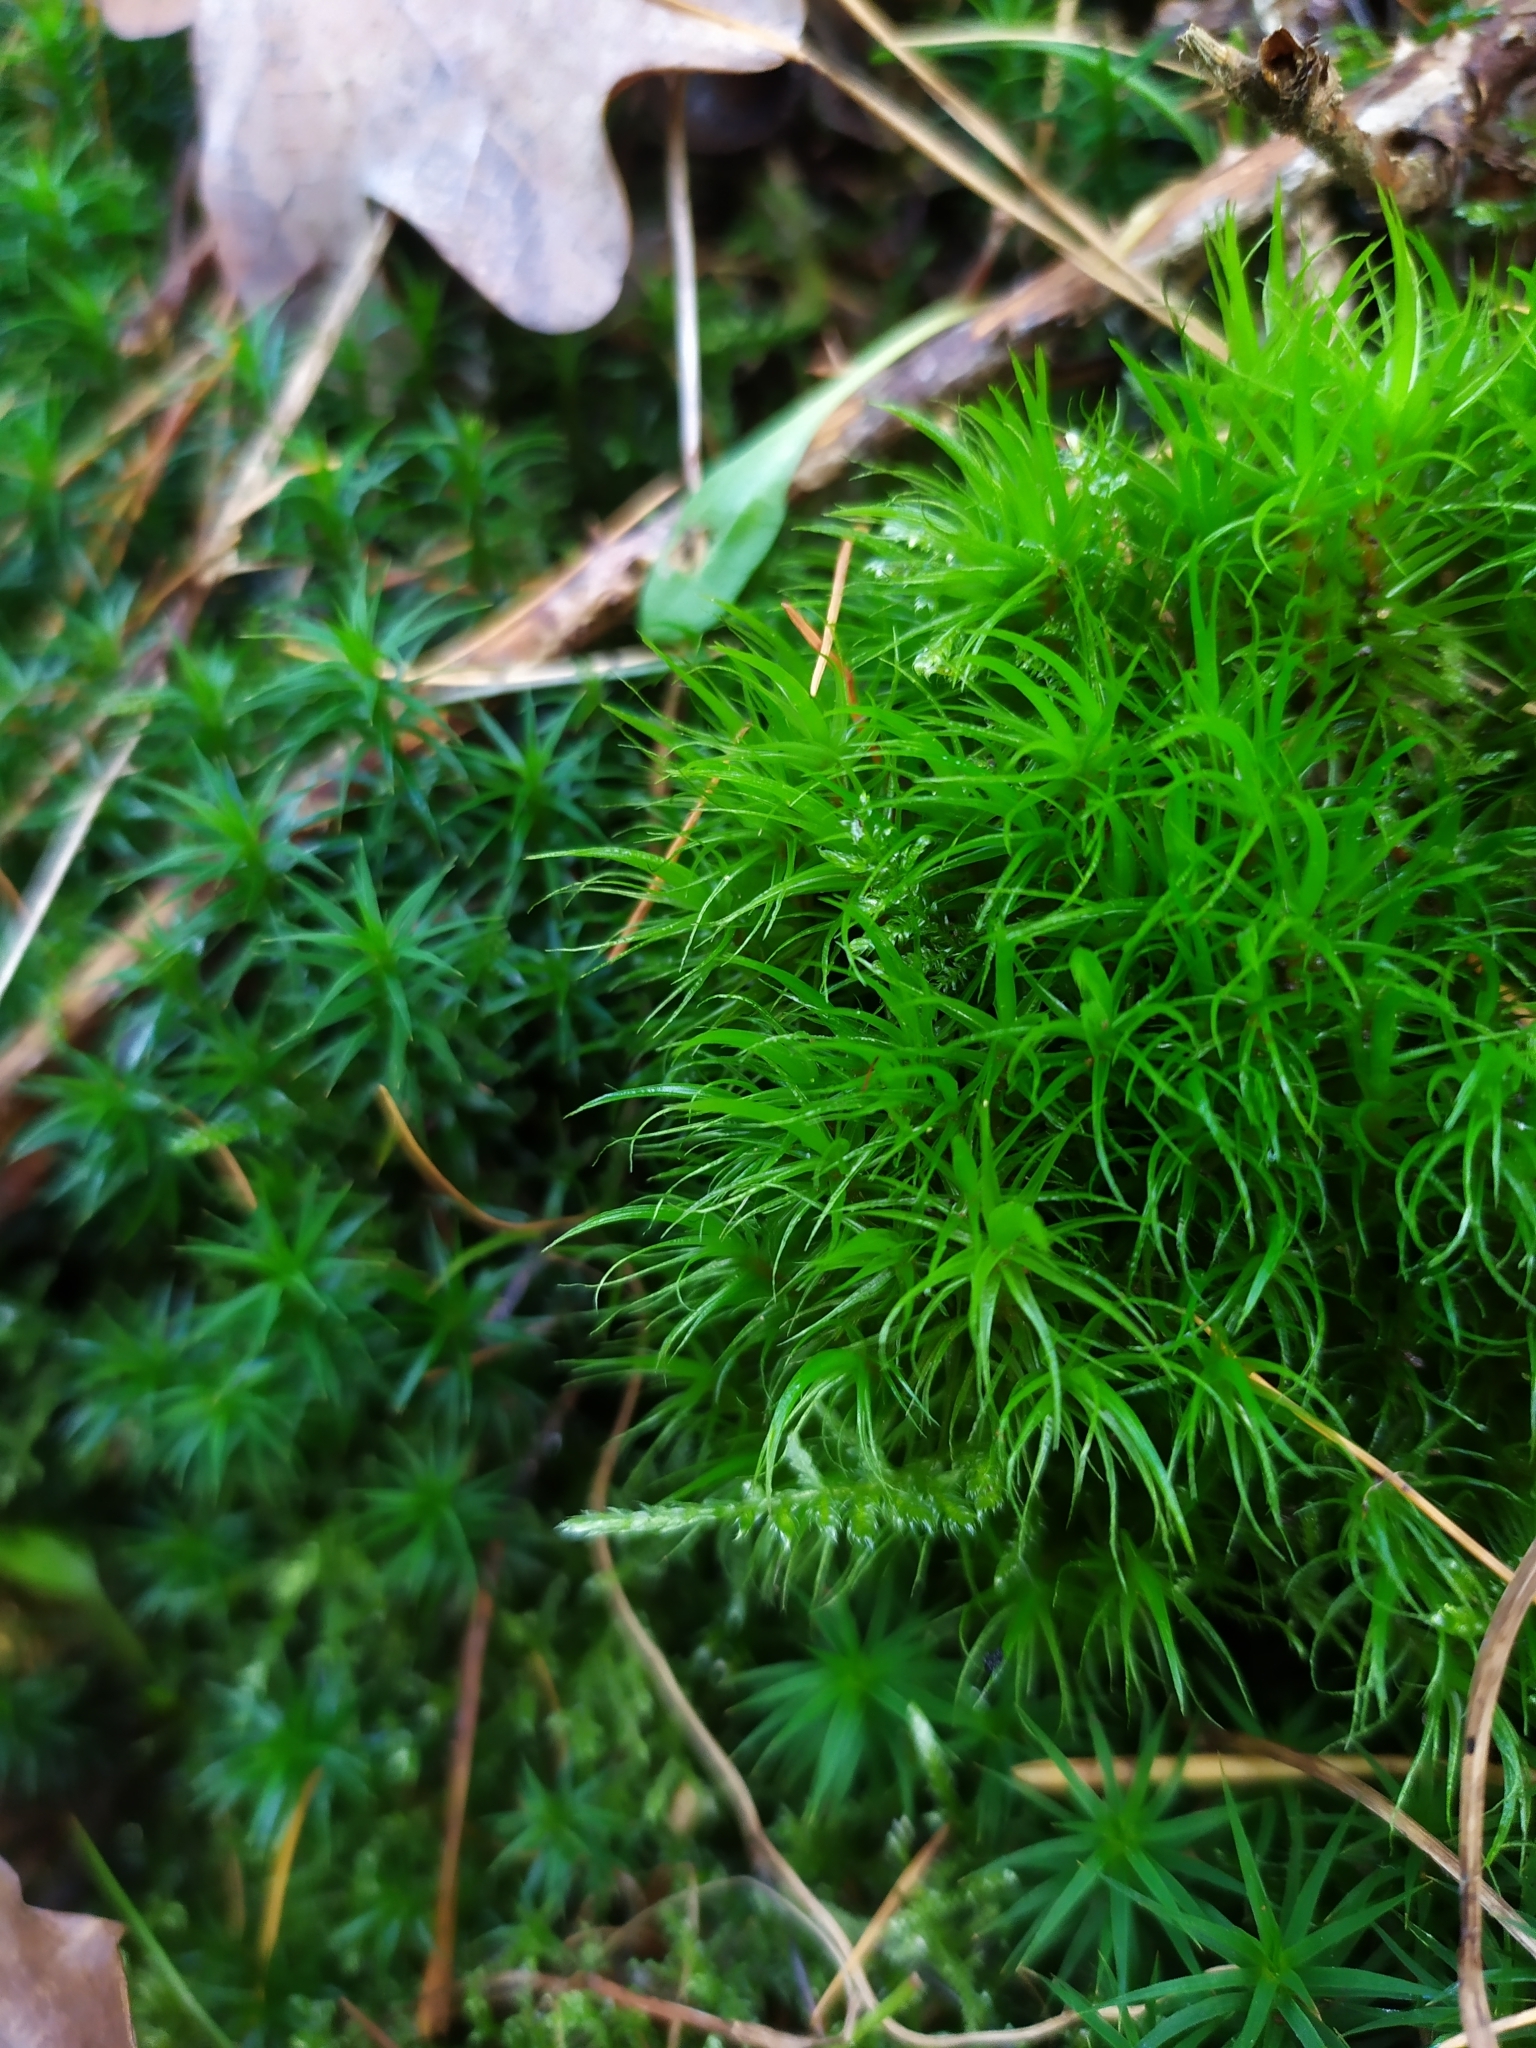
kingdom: Plantae
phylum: Bryophyta
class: Bryopsida
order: Dicranales
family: Dicranaceae
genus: Dicranum
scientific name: Dicranum scoparium
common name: Broom fork-moss
